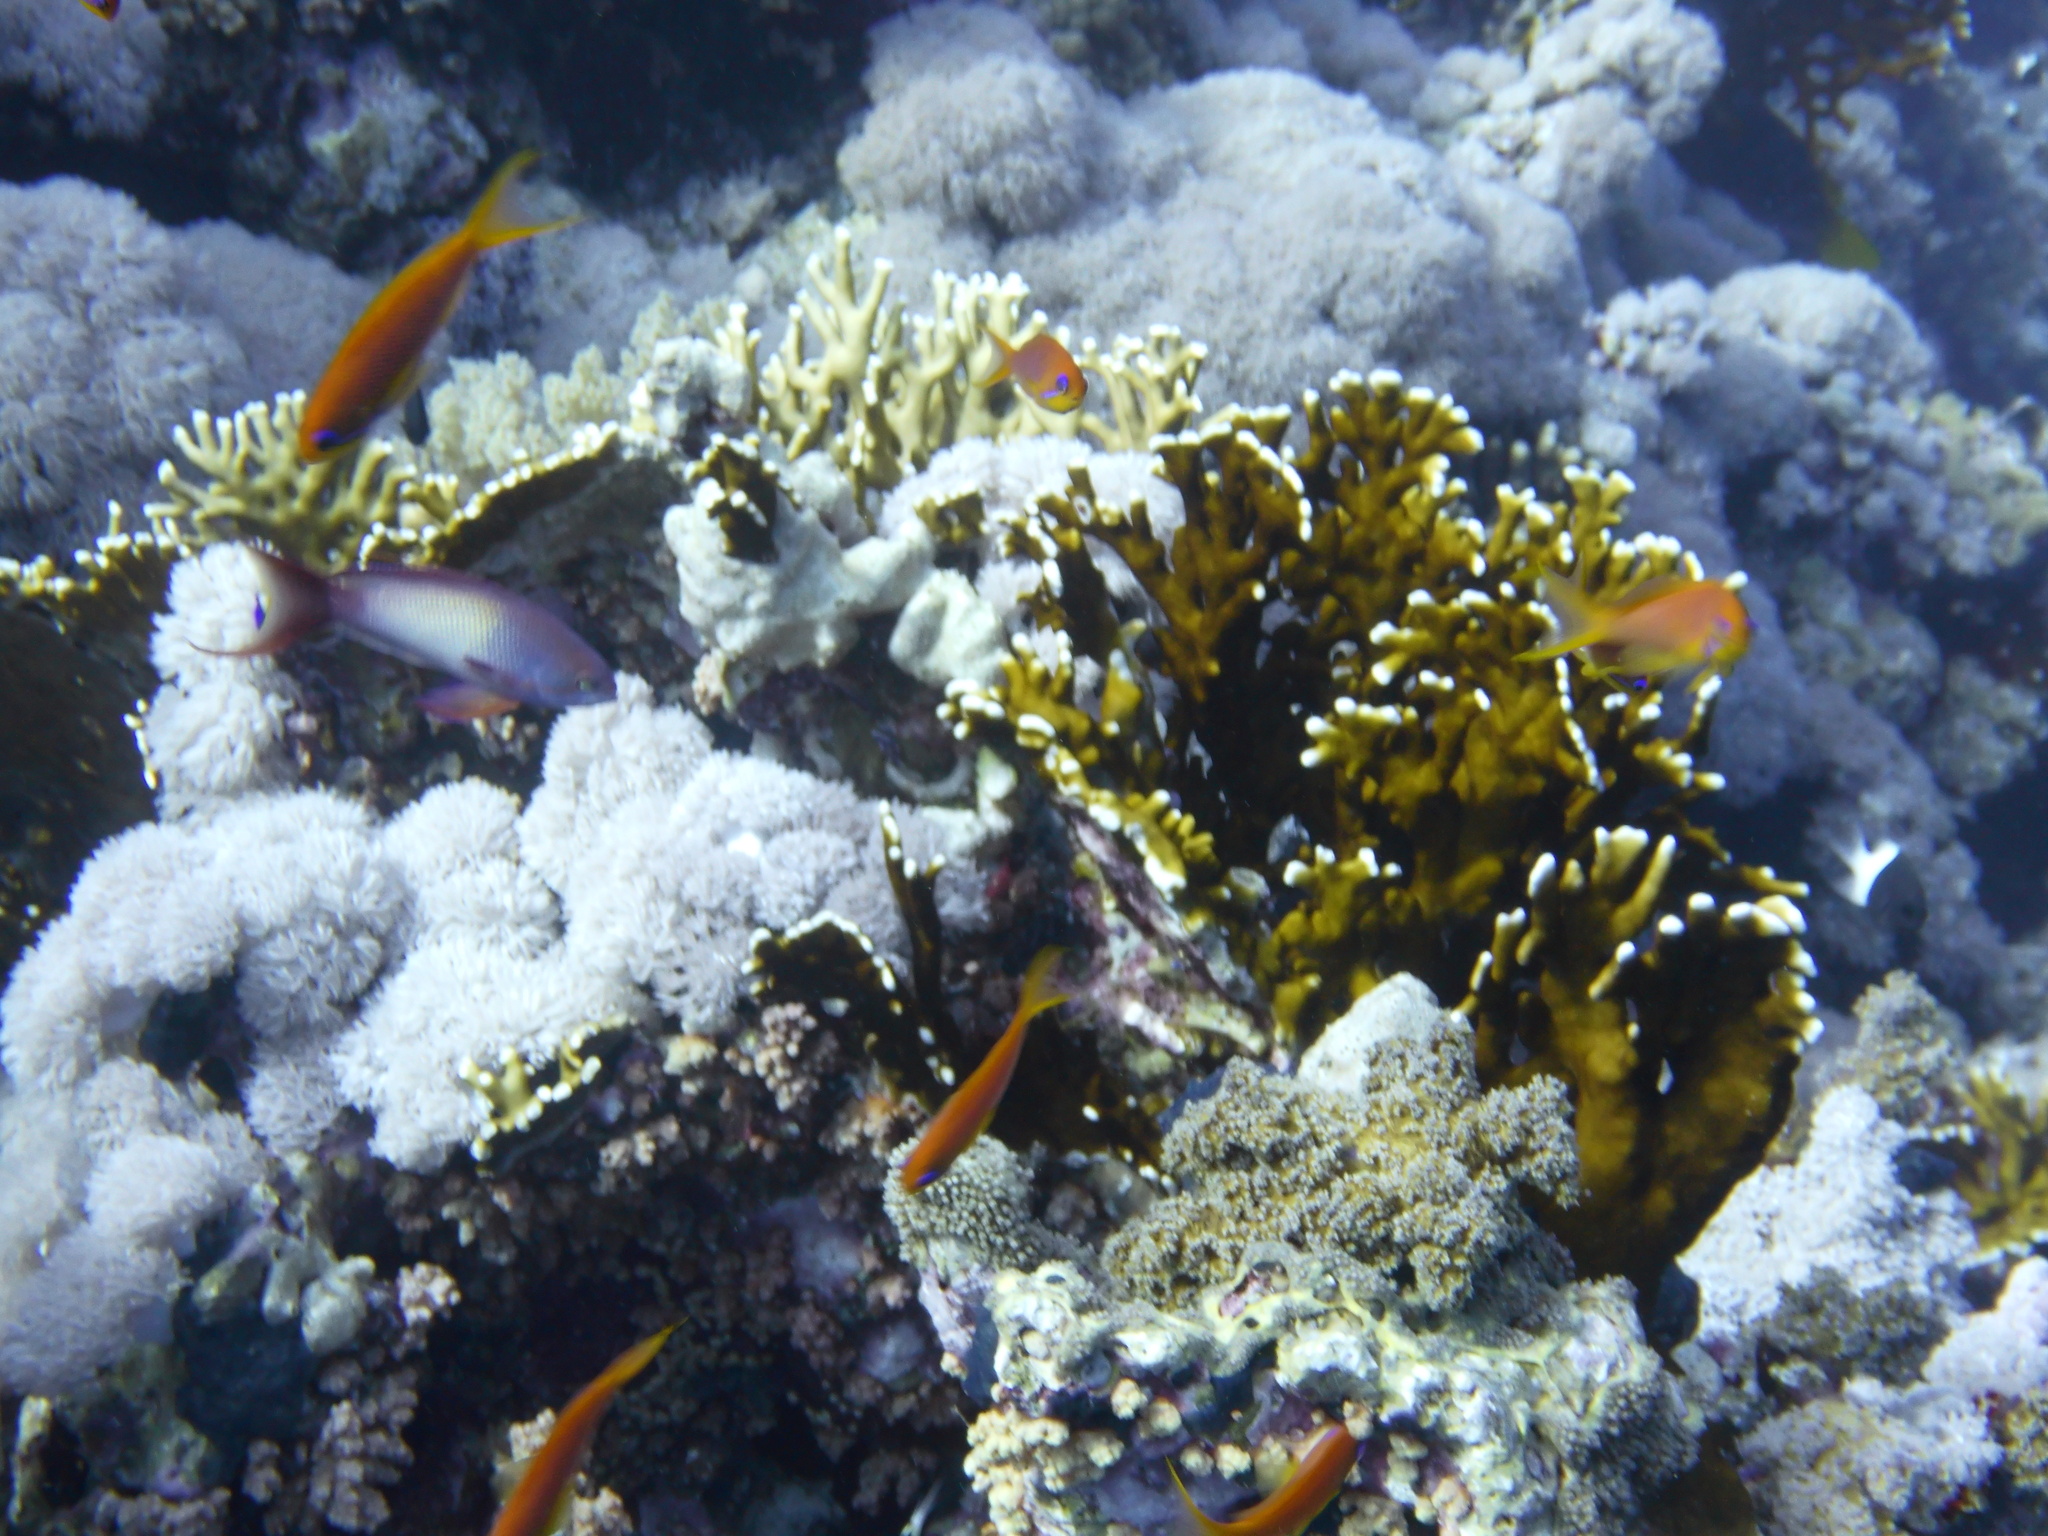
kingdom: Animalia
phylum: Chordata
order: Perciformes
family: Serranidae
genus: Pseudanthias
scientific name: Pseudanthias squamipinnis
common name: Scalefin anthias
